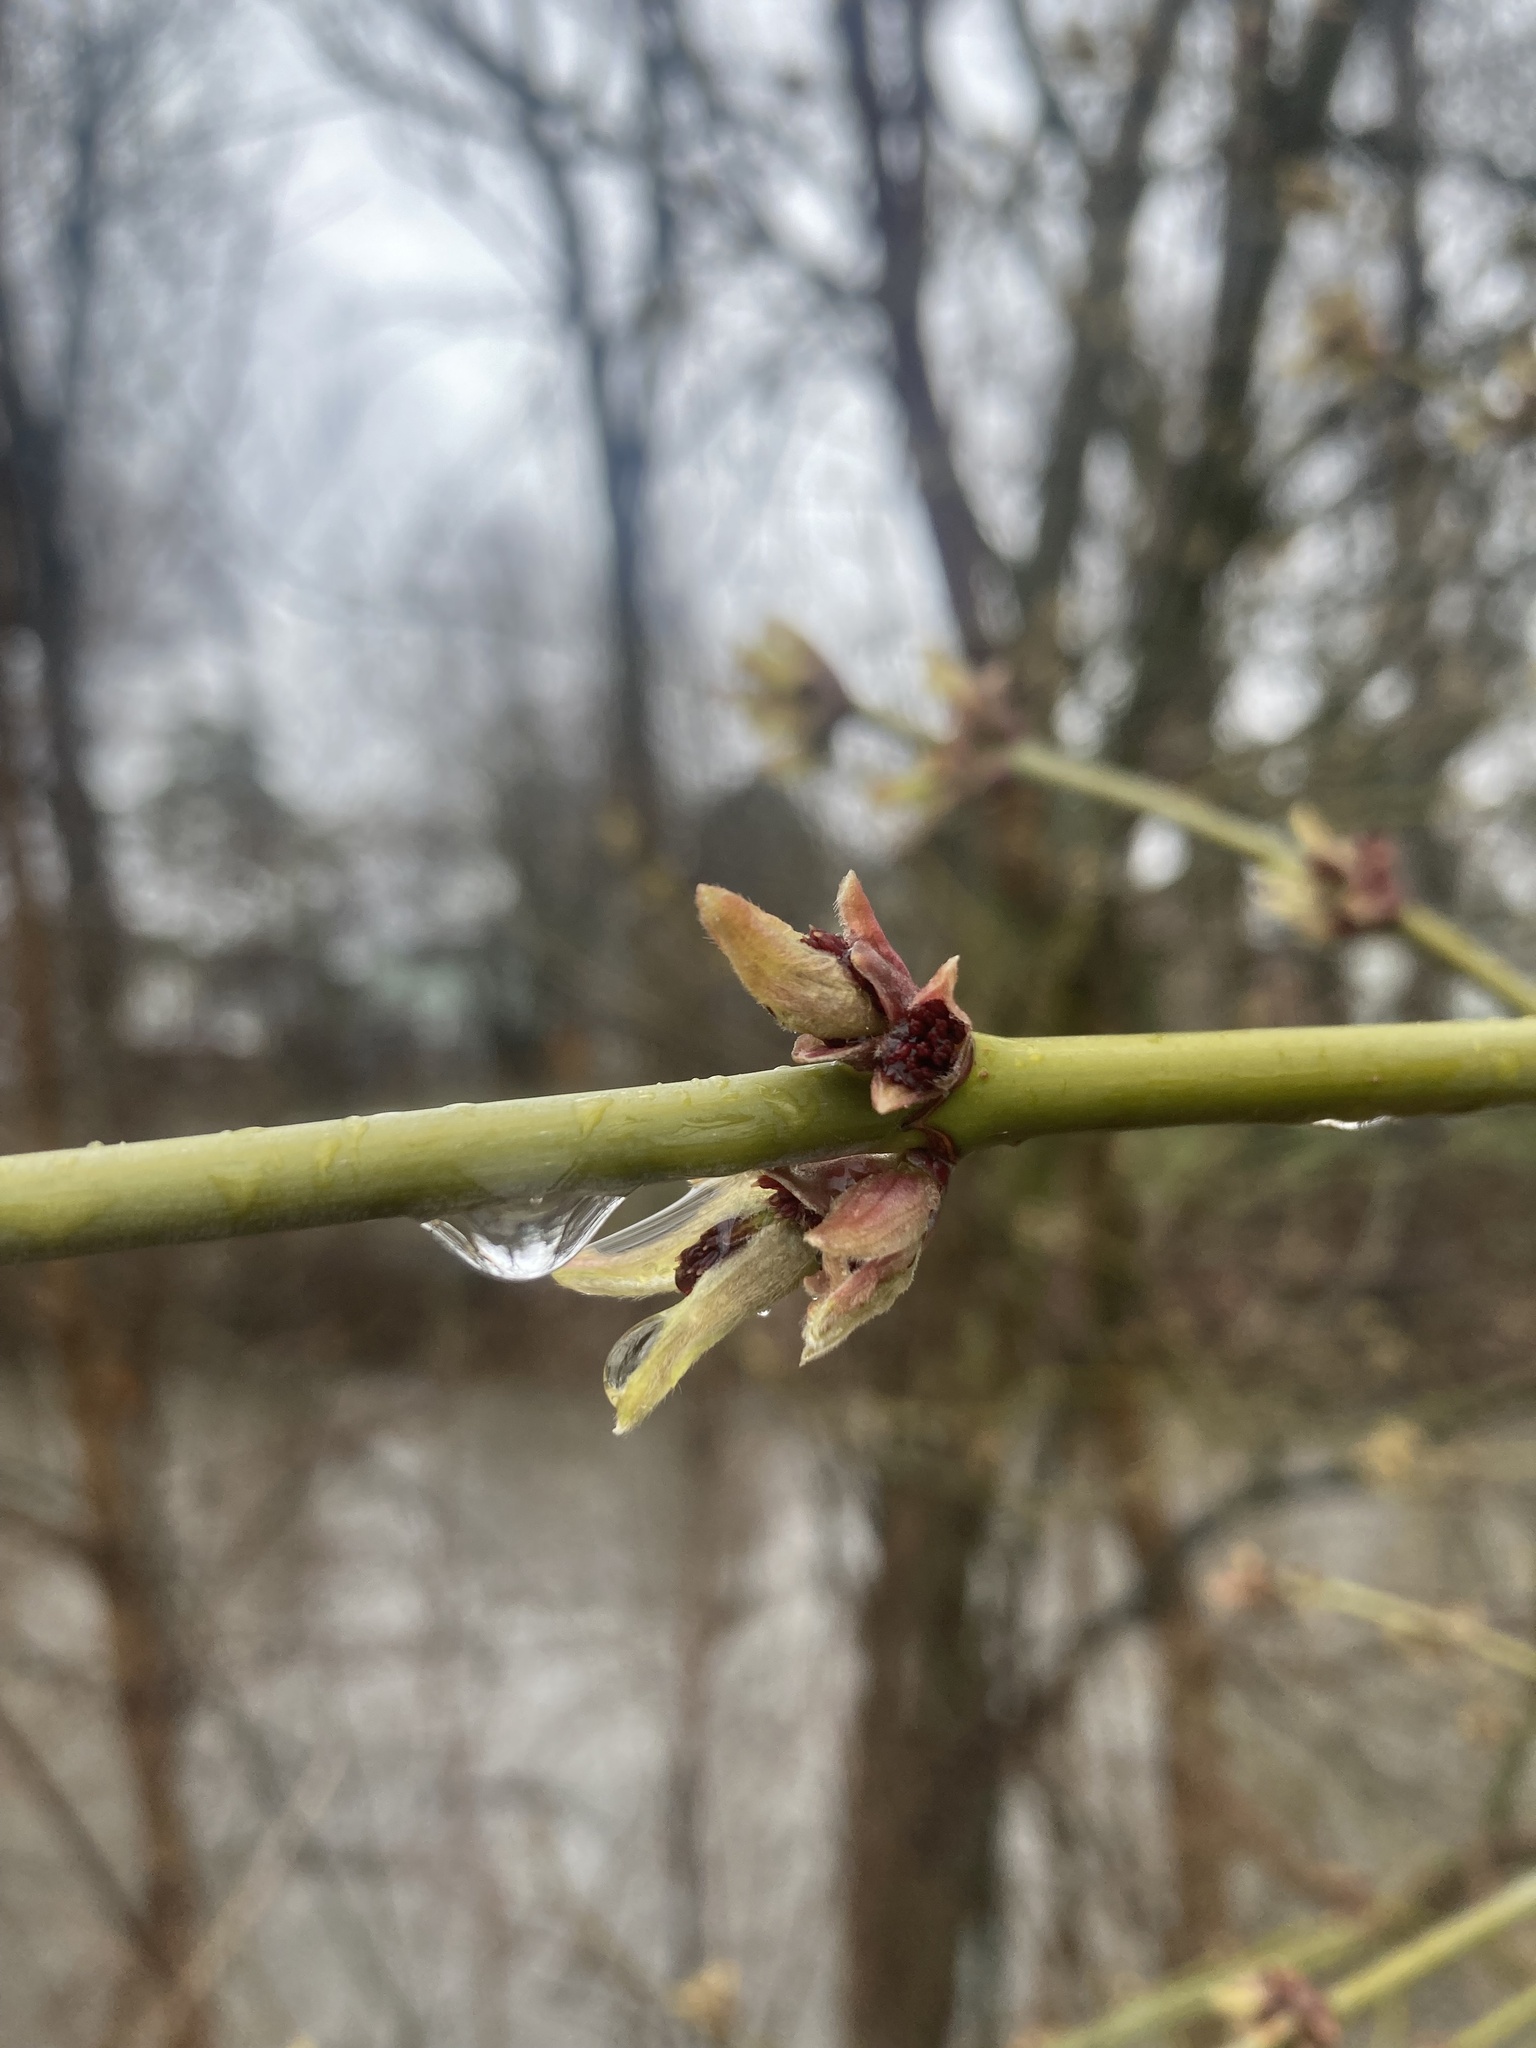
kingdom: Plantae
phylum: Tracheophyta
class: Magnoliopsida
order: Sapindales
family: Sapindaceae
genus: Acer
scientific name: Acer negundo
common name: Ashleaf maple
